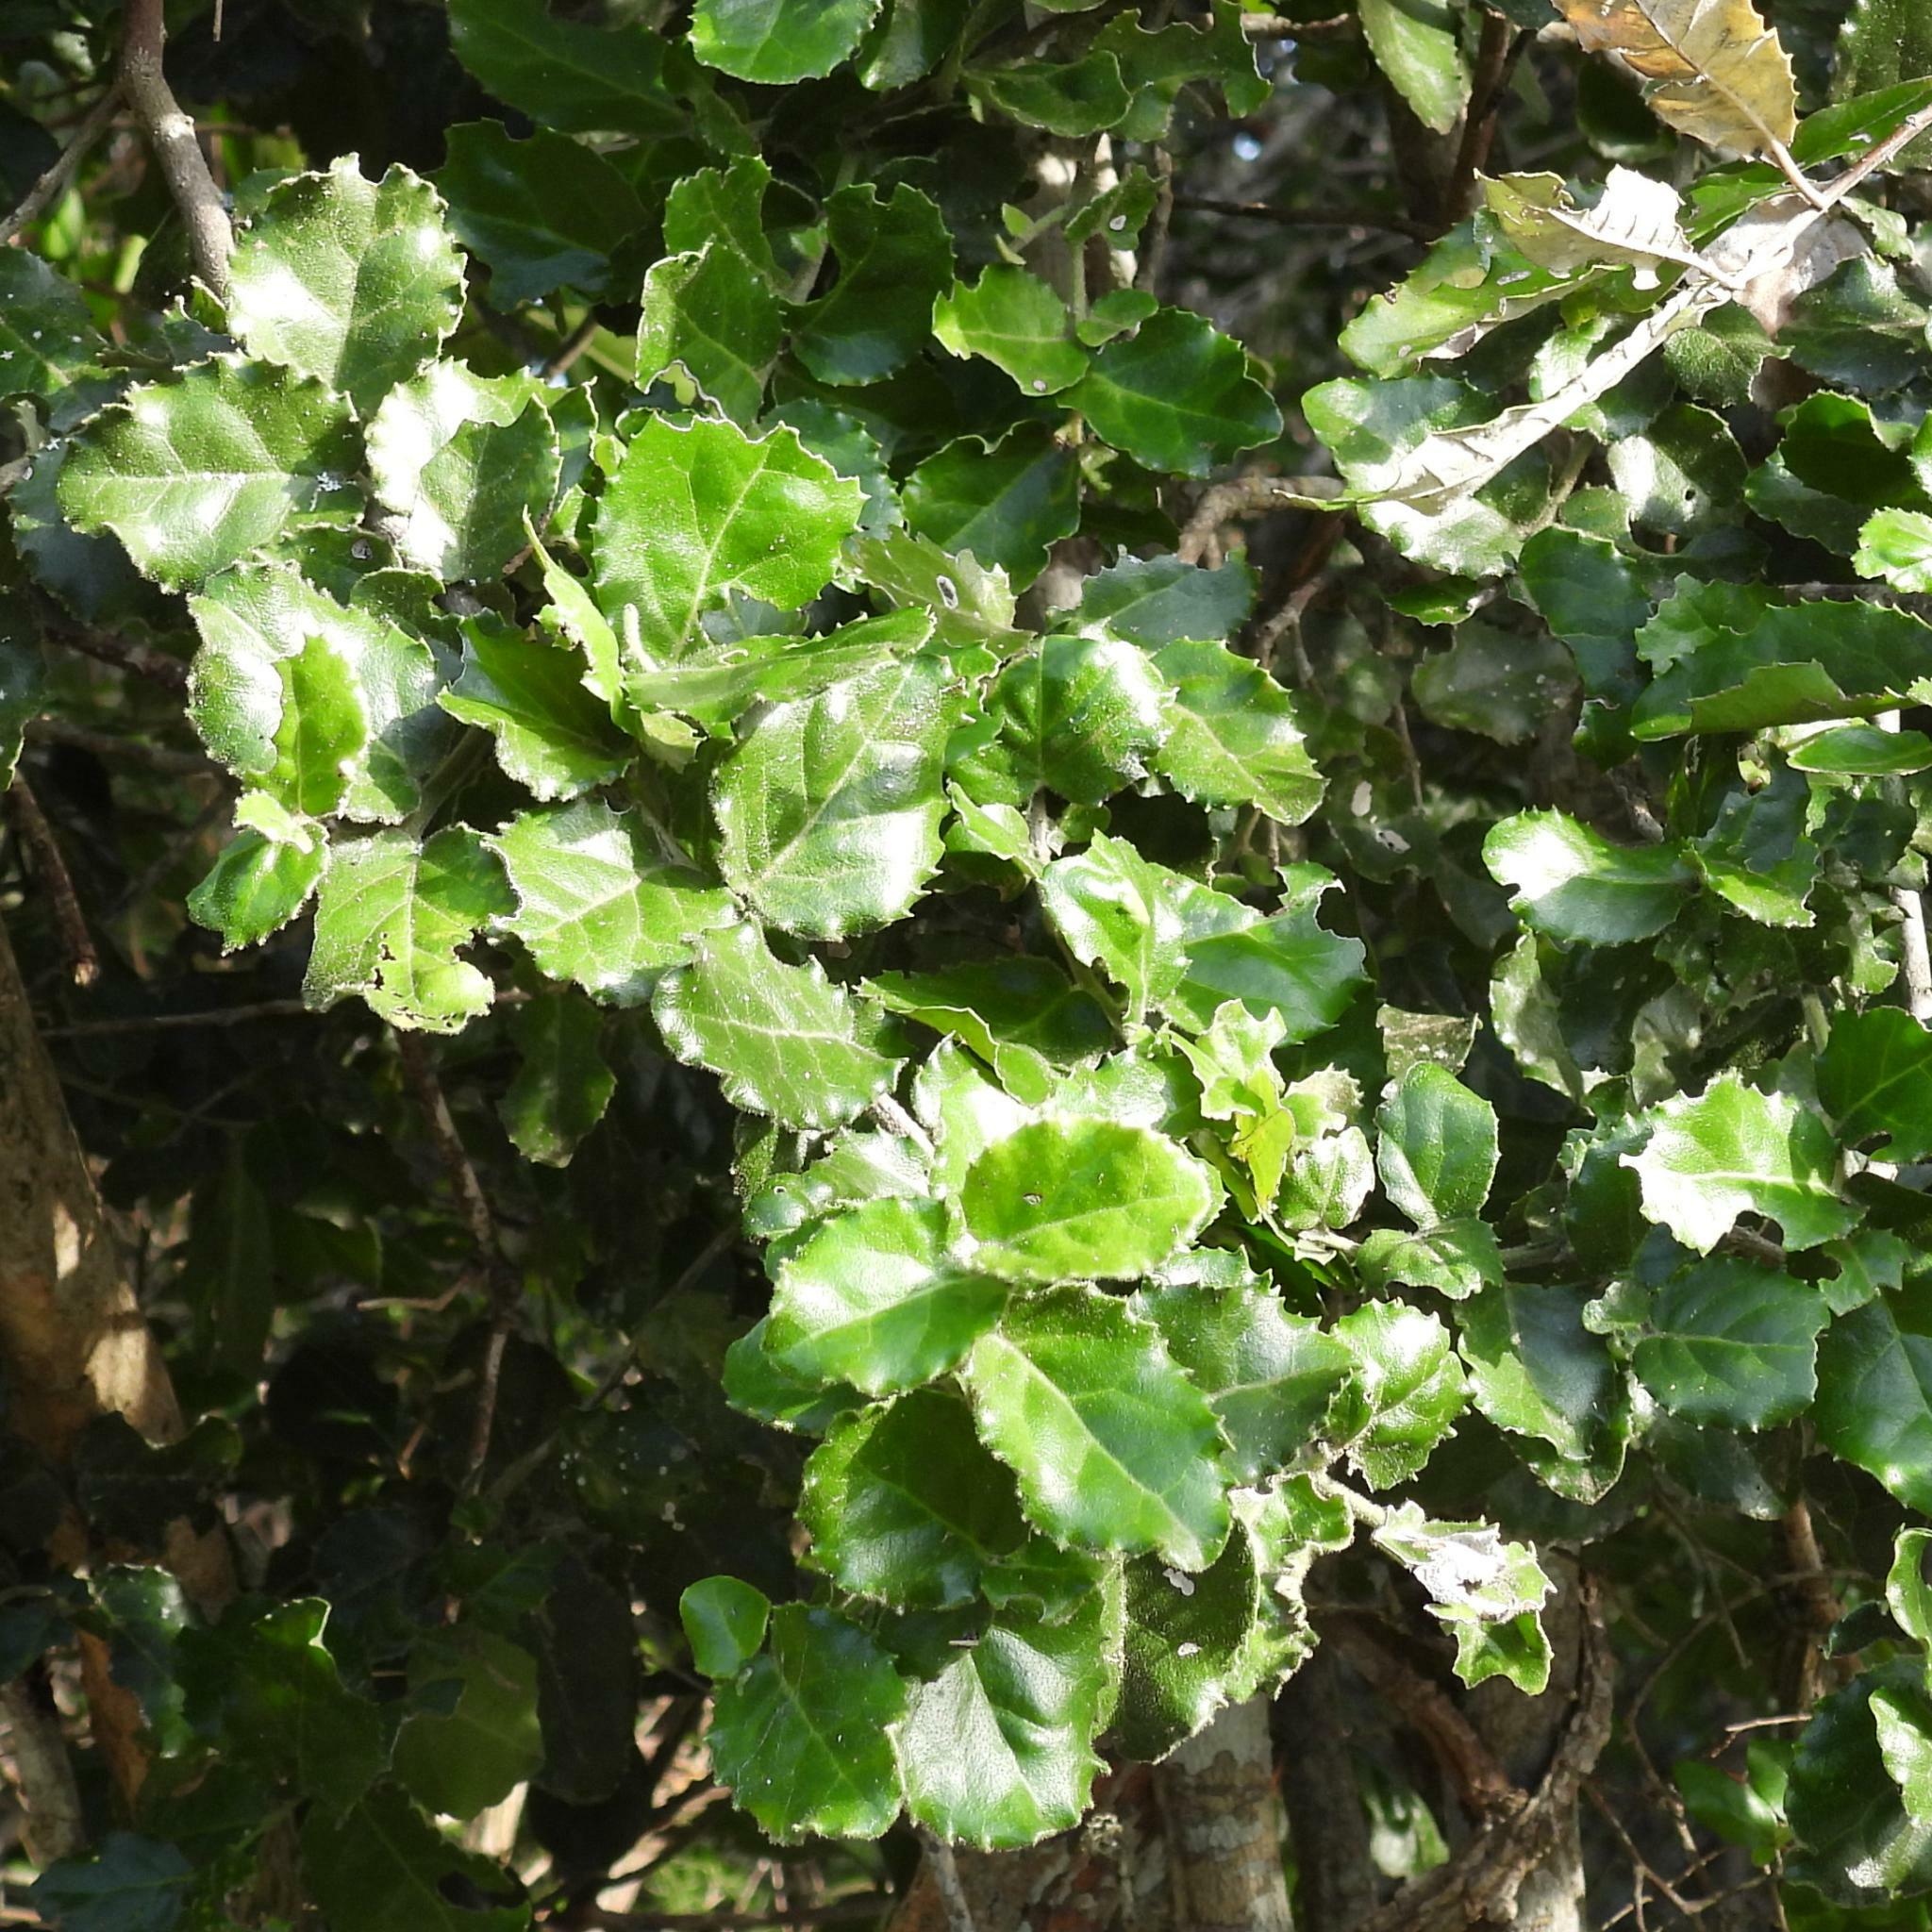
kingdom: Plantae
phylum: Tracheophyta
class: Magnoliopsida
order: Celastrales
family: Celastraceae
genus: Mystroxylon
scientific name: Mystroxylon aethiopicum
